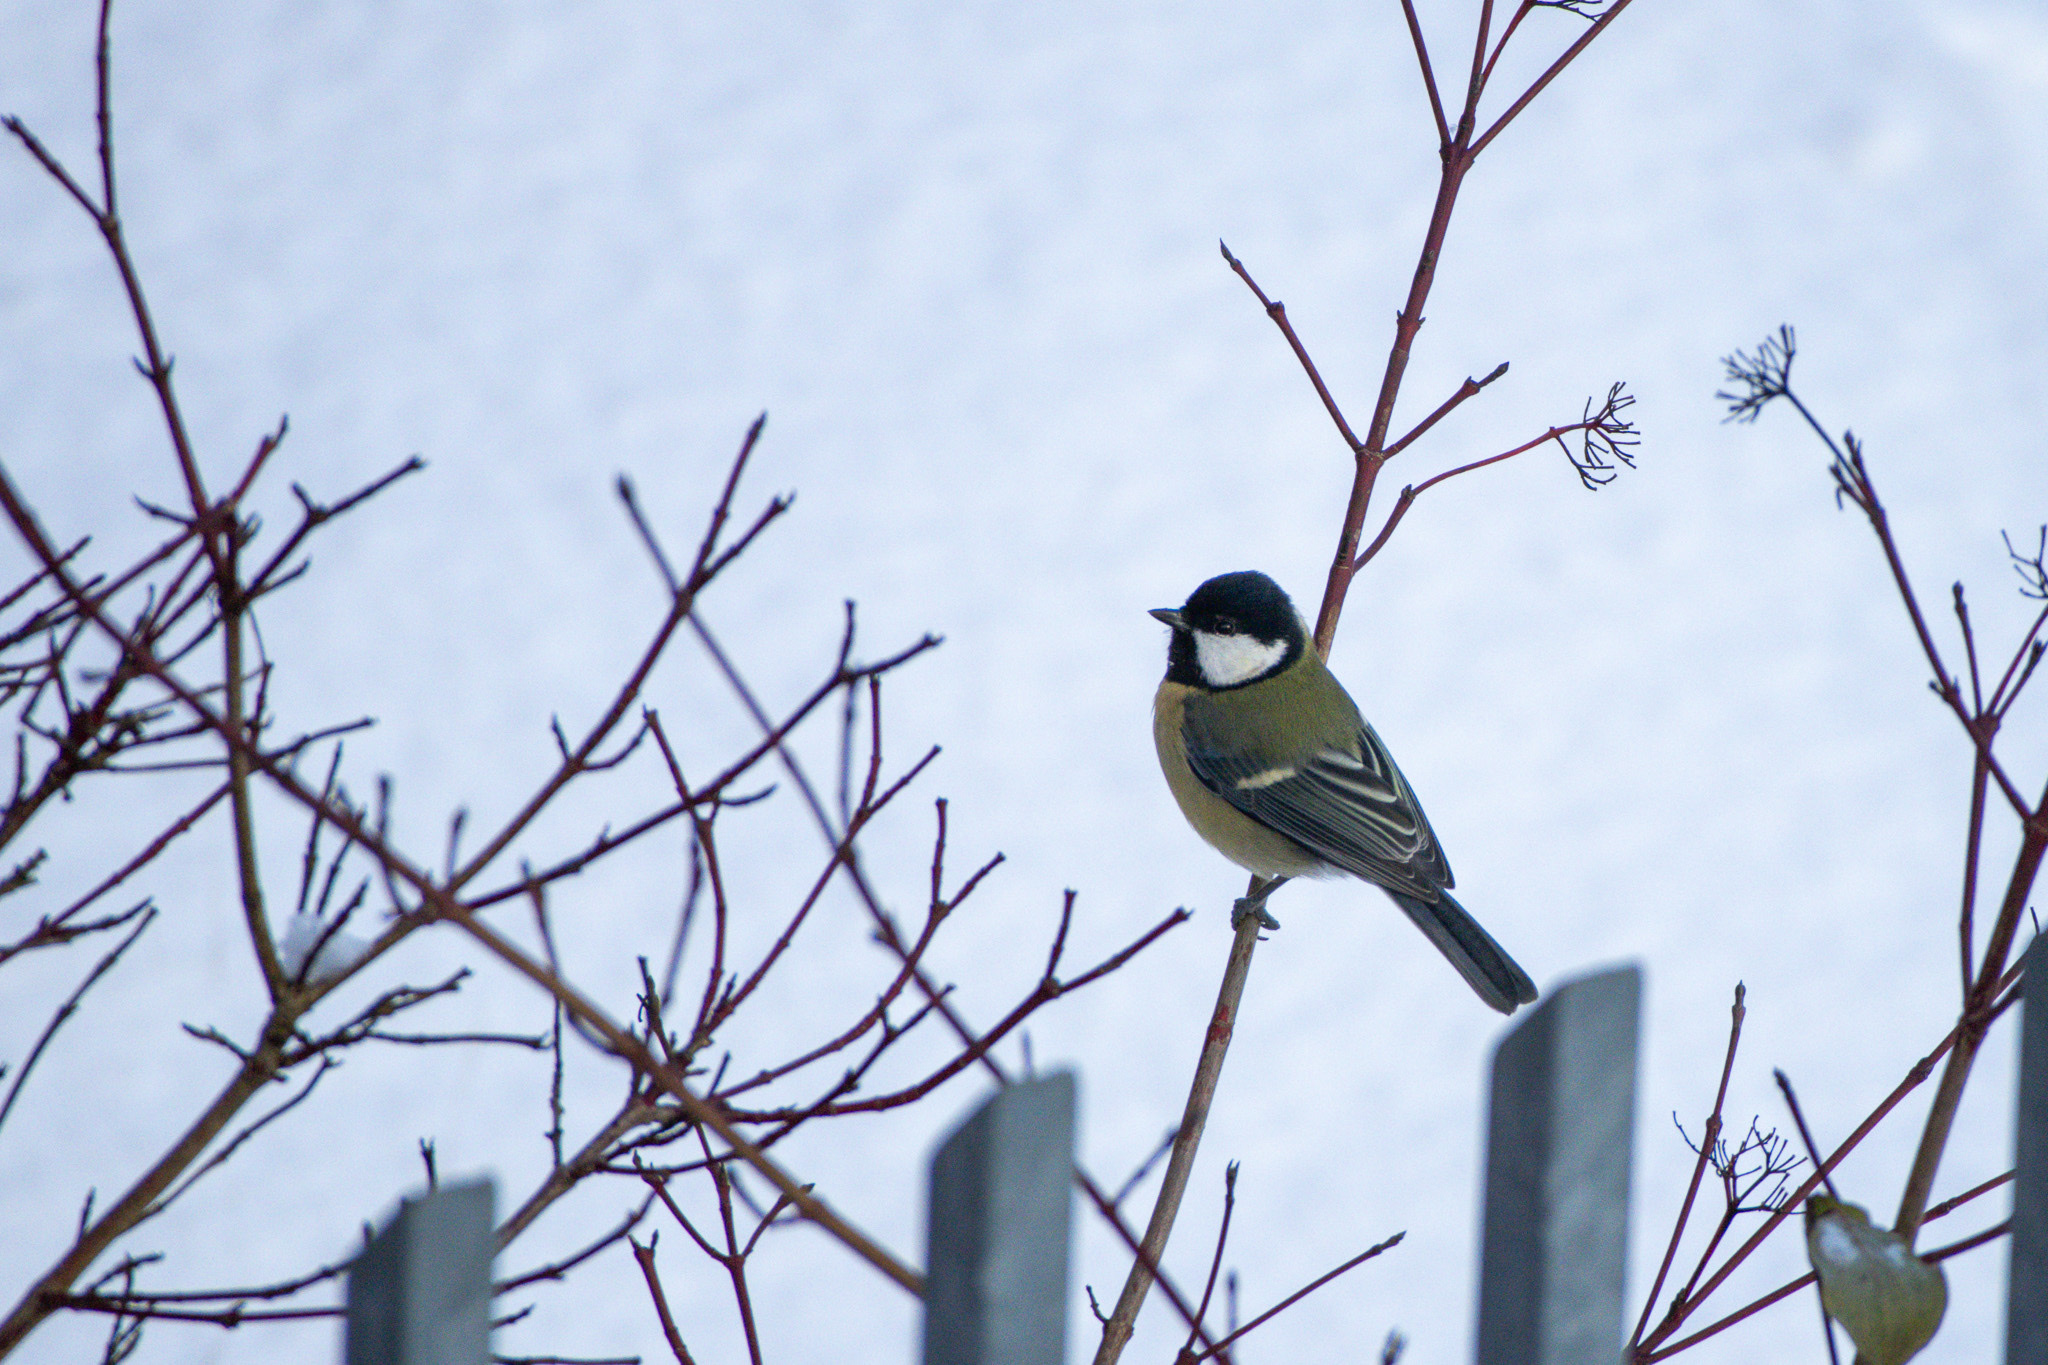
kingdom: Animalia
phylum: Chordata
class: Aves
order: Passeriformes
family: Paridae
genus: Parus
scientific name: Parus major
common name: Great tit
